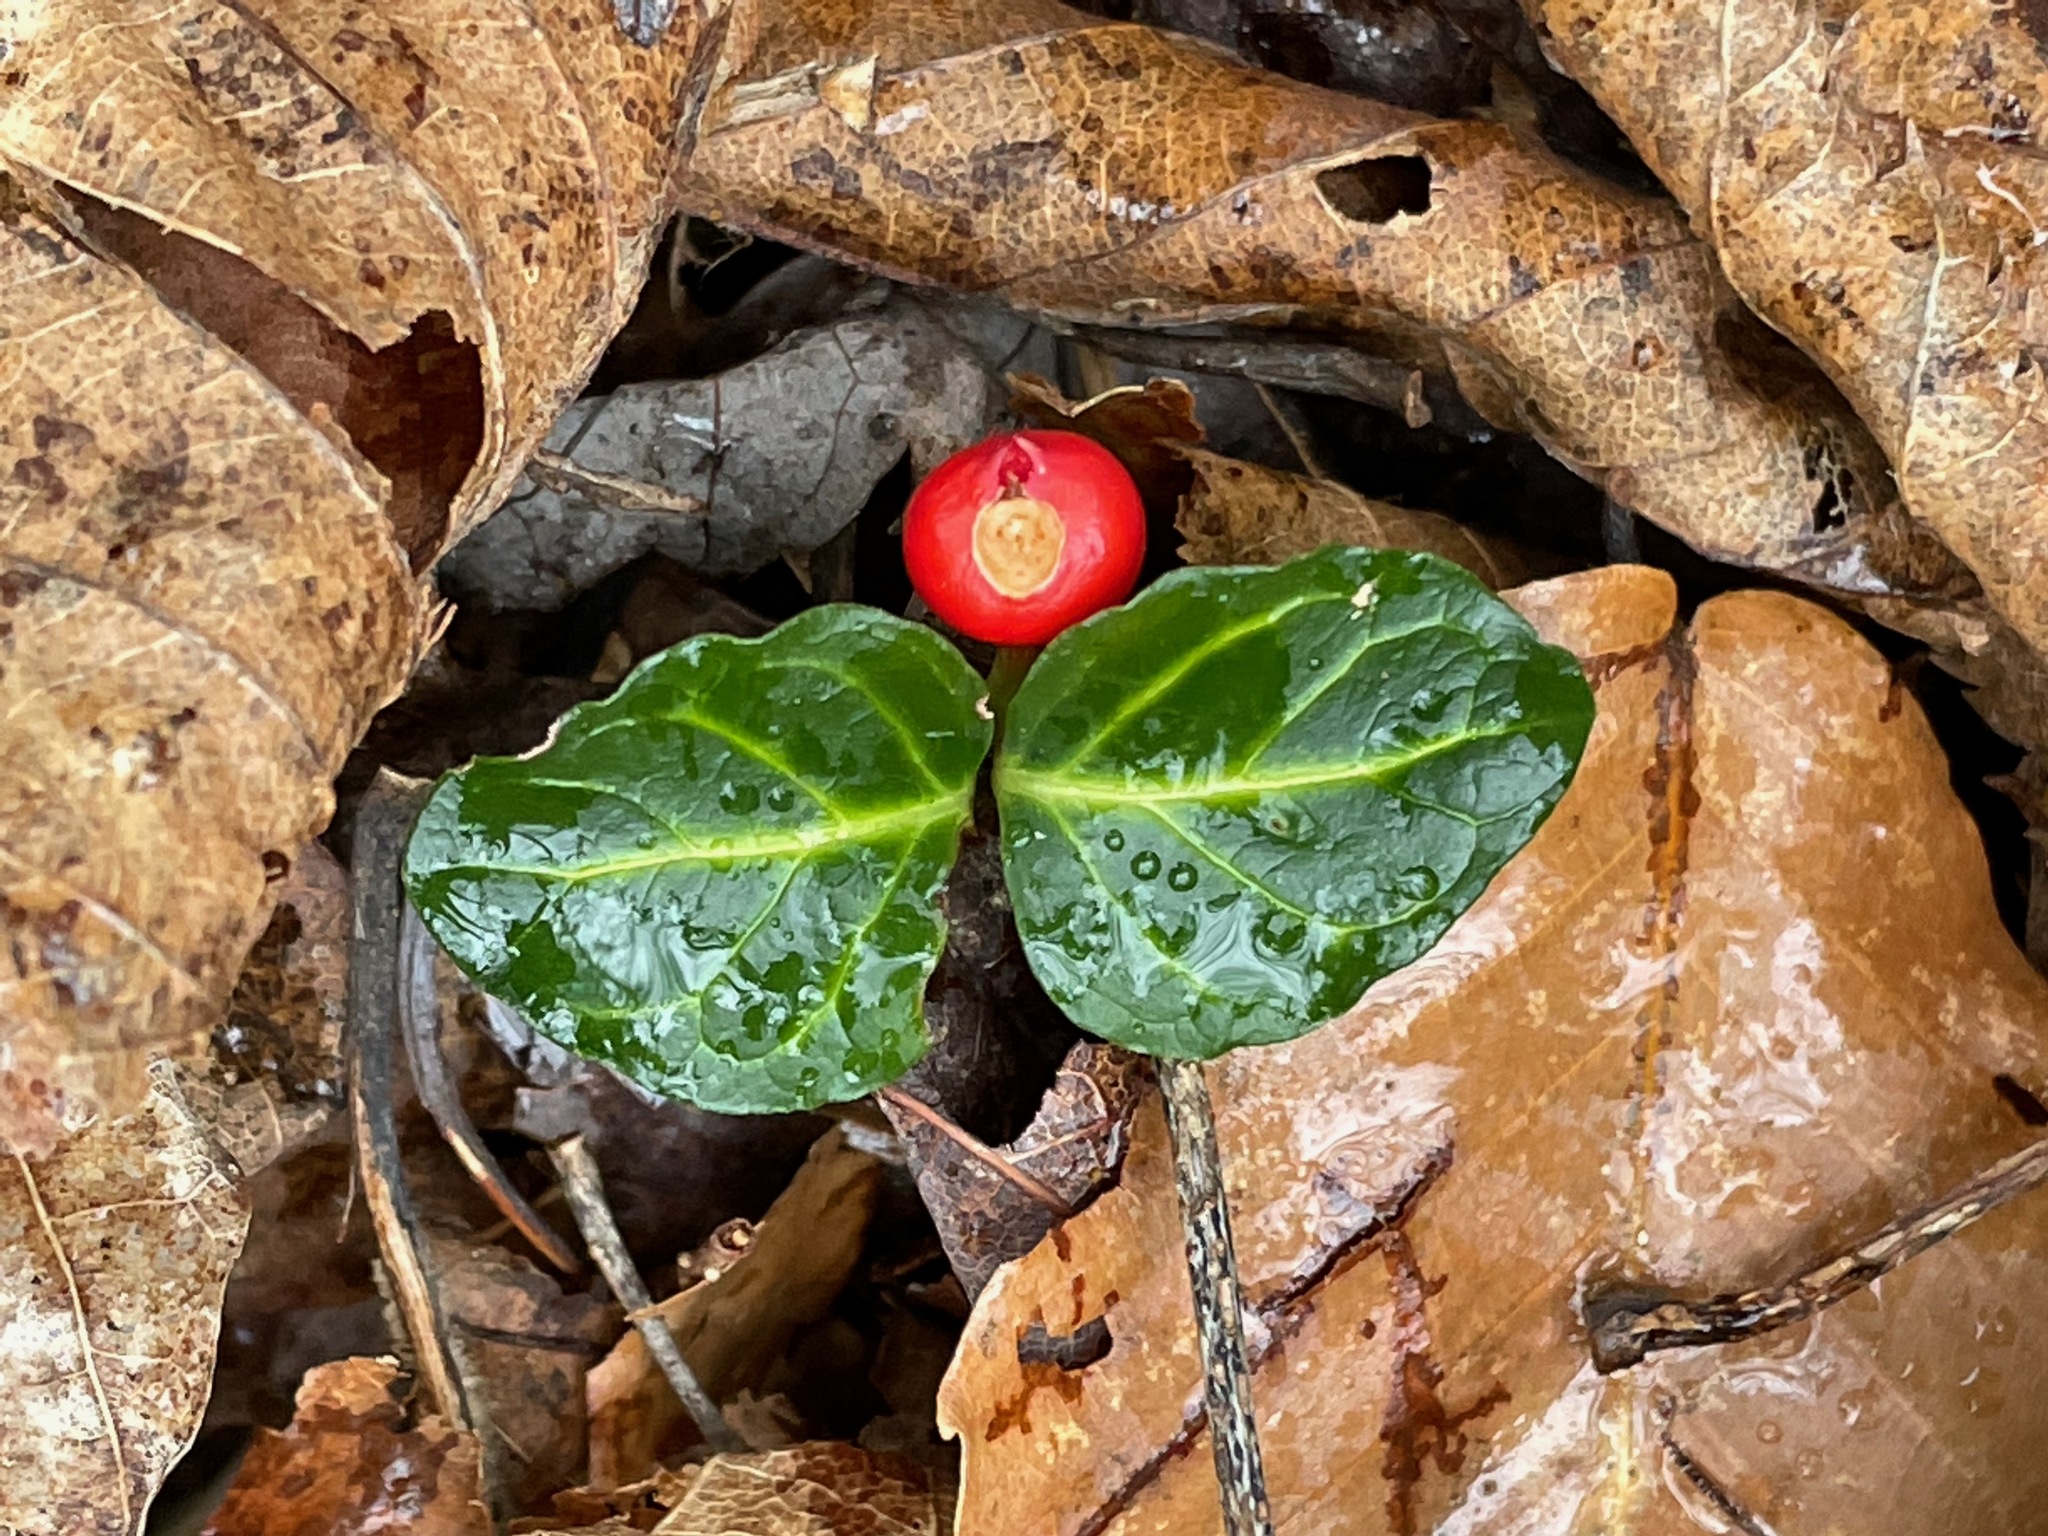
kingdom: Plantae
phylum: Tracheophyta
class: Magnoliopsida
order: Gentianales
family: Rubiaceae
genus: Mitchella
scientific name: Mitchella repens
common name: Partridge-berry
